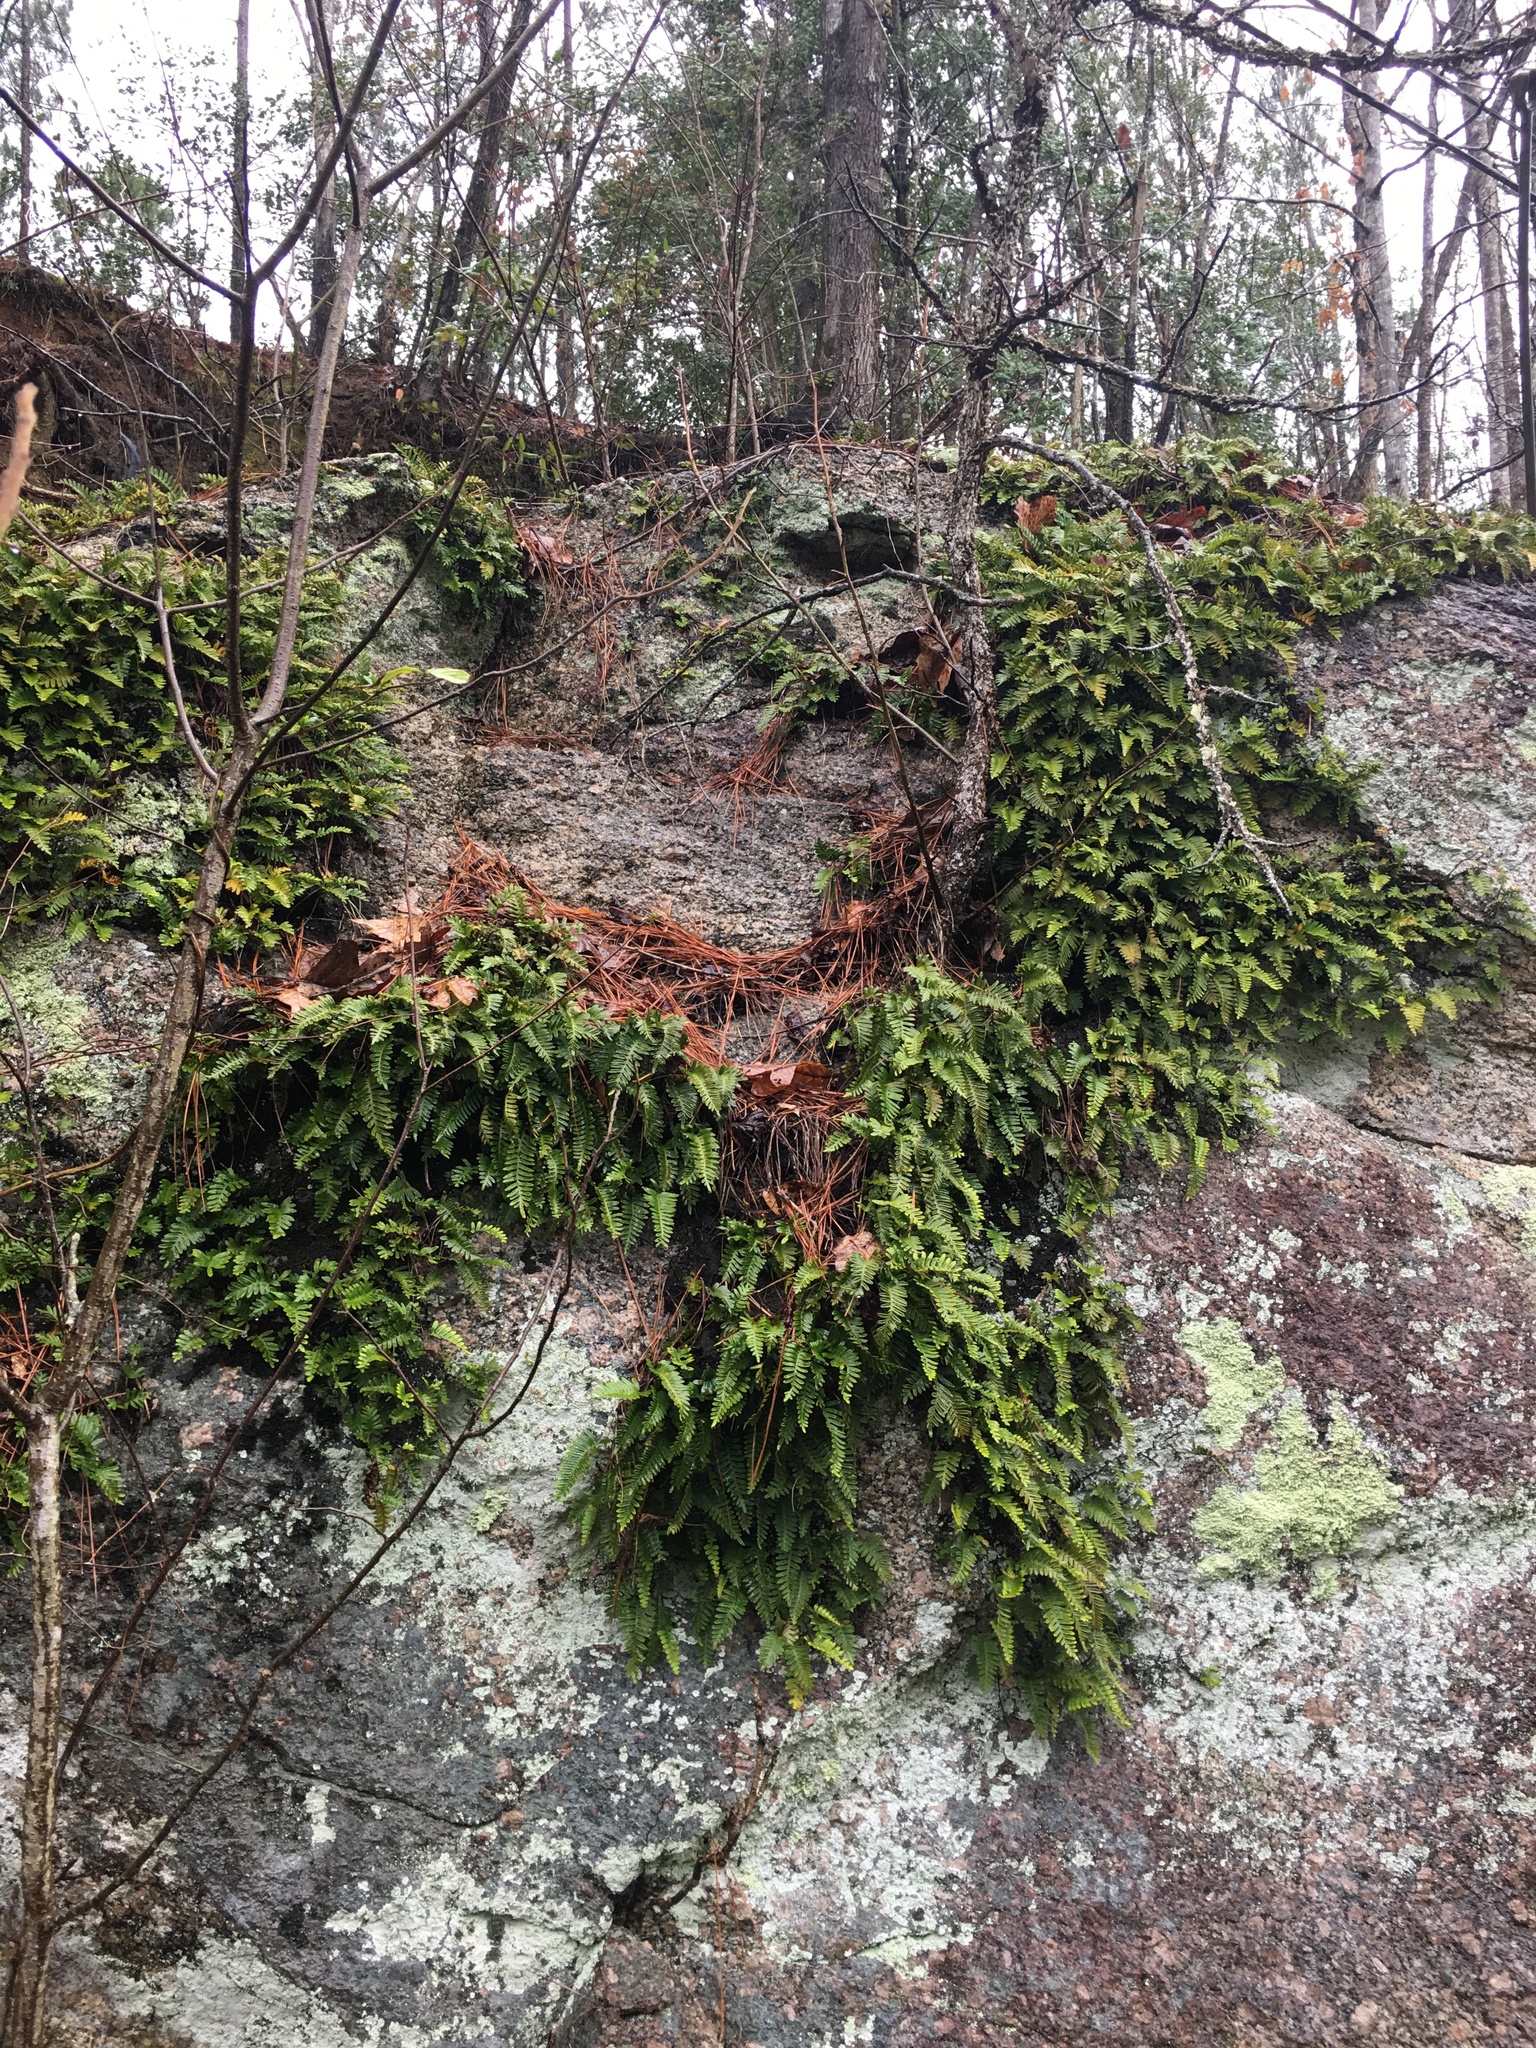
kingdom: Plantae
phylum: Tracheophyta
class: Polypodiopsida
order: Polypodiales
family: Polypodiaceae
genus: Pleopeltis
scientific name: Pleopeltis michauxiana
